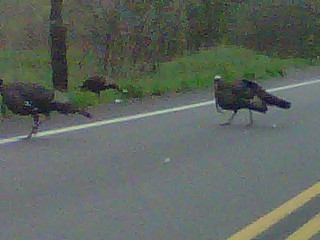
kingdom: Animalia
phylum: Chordata
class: Aves
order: Galliformes
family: Phasianidae
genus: Meleagris
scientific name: Meleagris gallopavo
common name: Wild turkey
